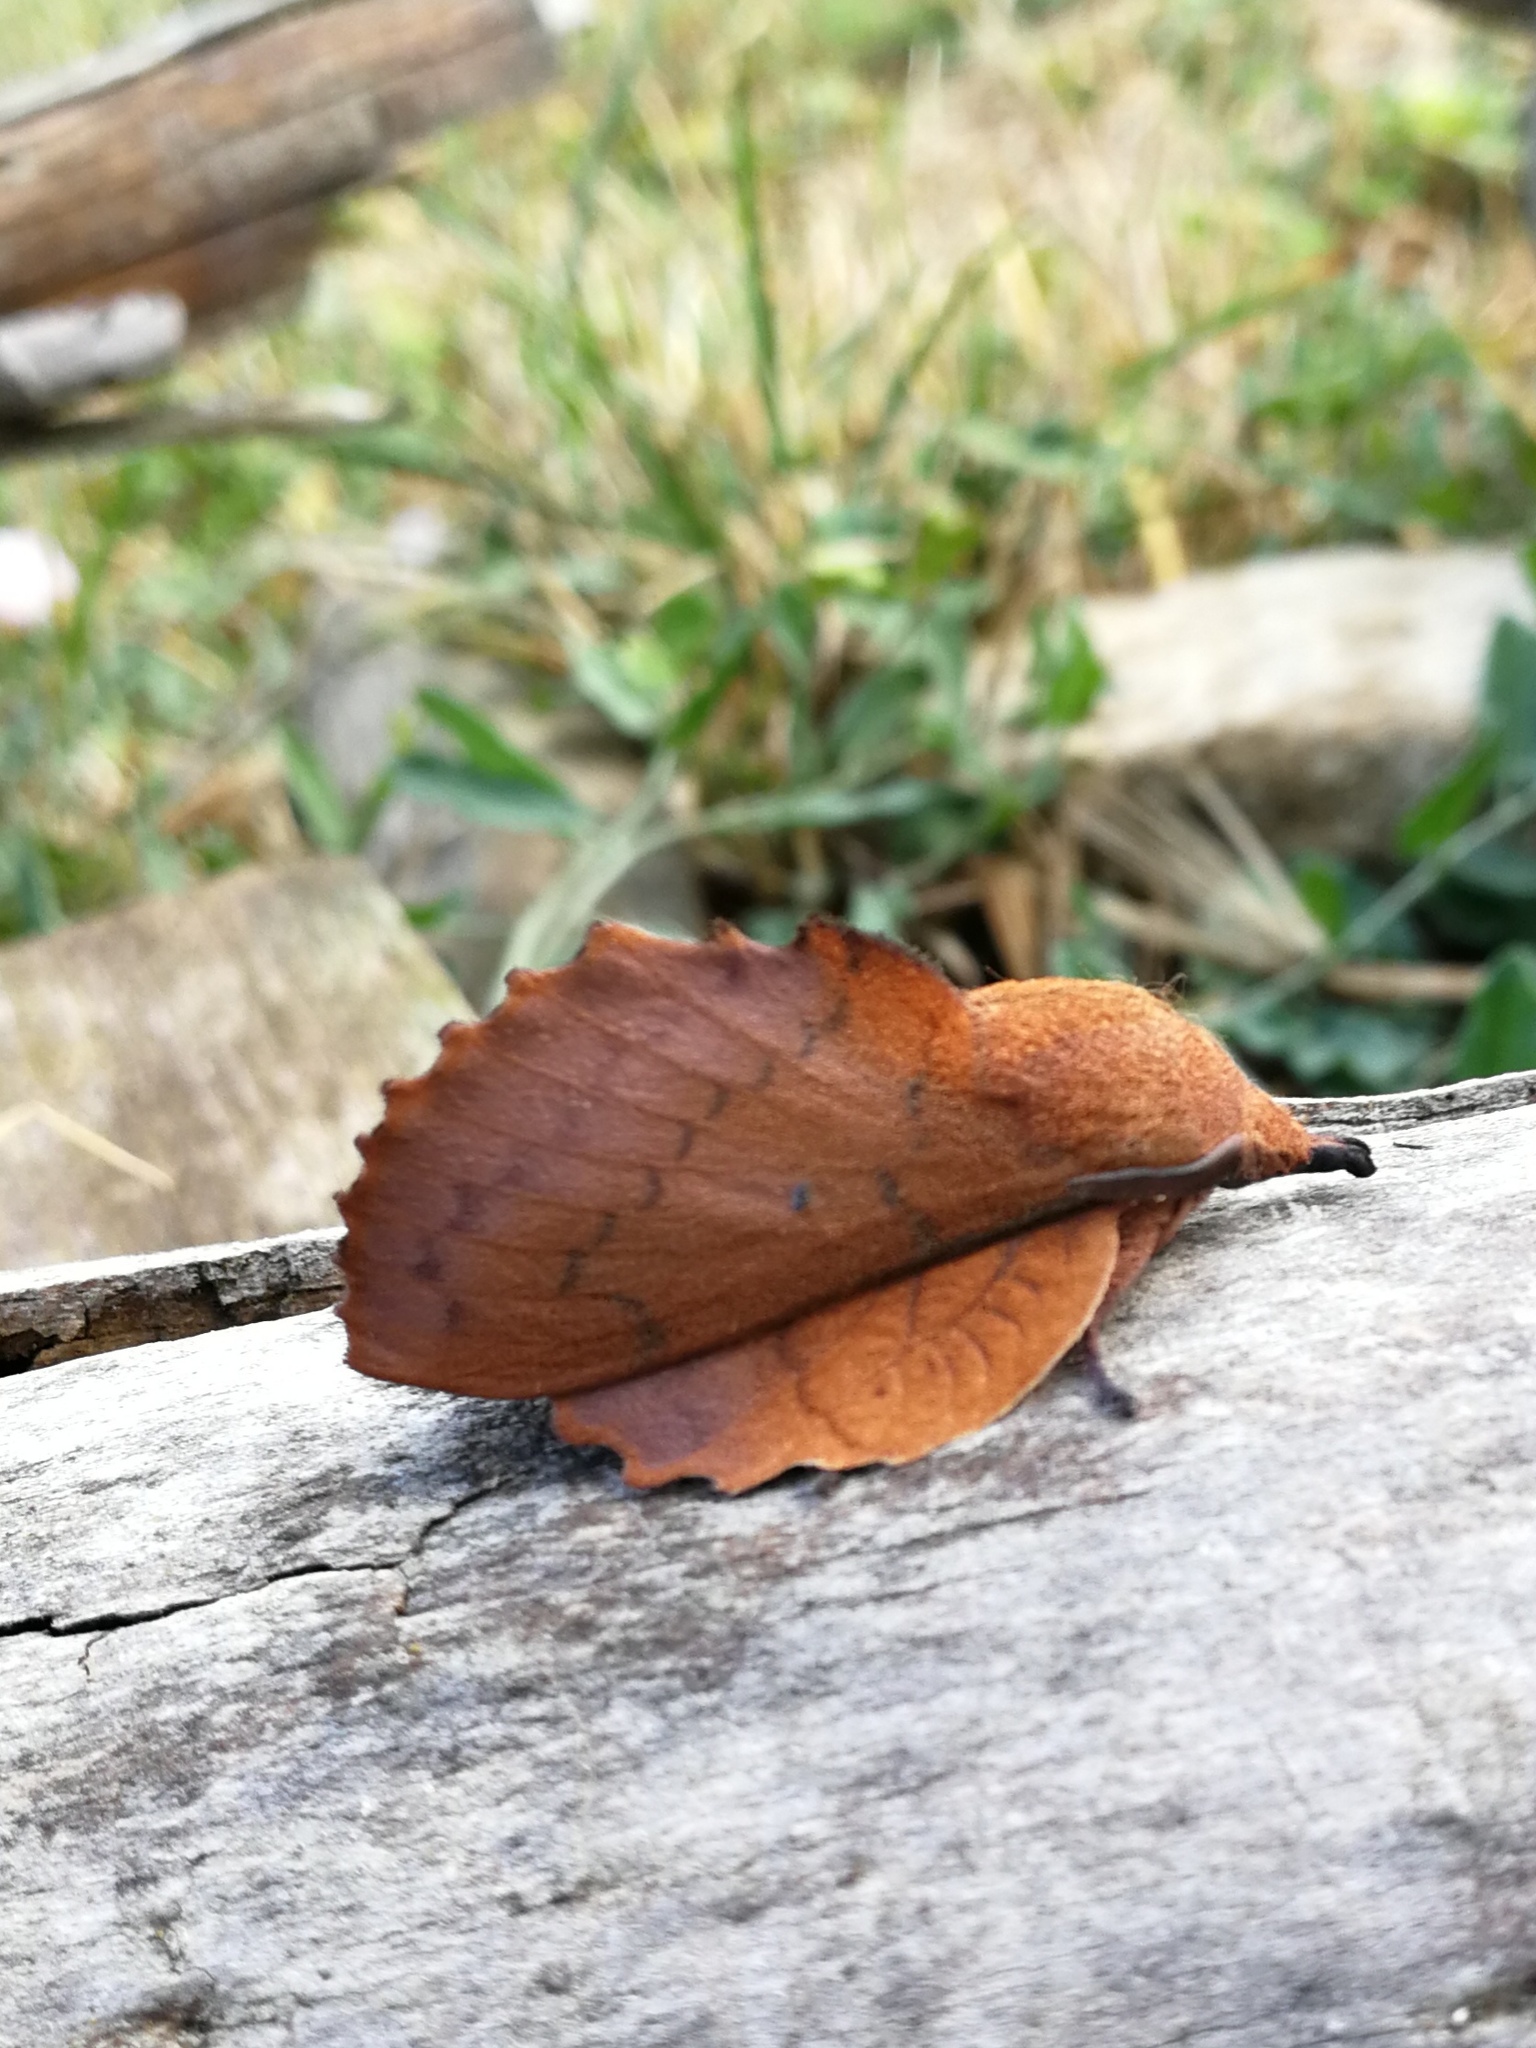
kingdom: Animalia
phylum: Arthropoda
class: Insecta
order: Lepidoptera
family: Lasiocampidae
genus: Gastropacha
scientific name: Gastropacha quercifolia
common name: Lappet
